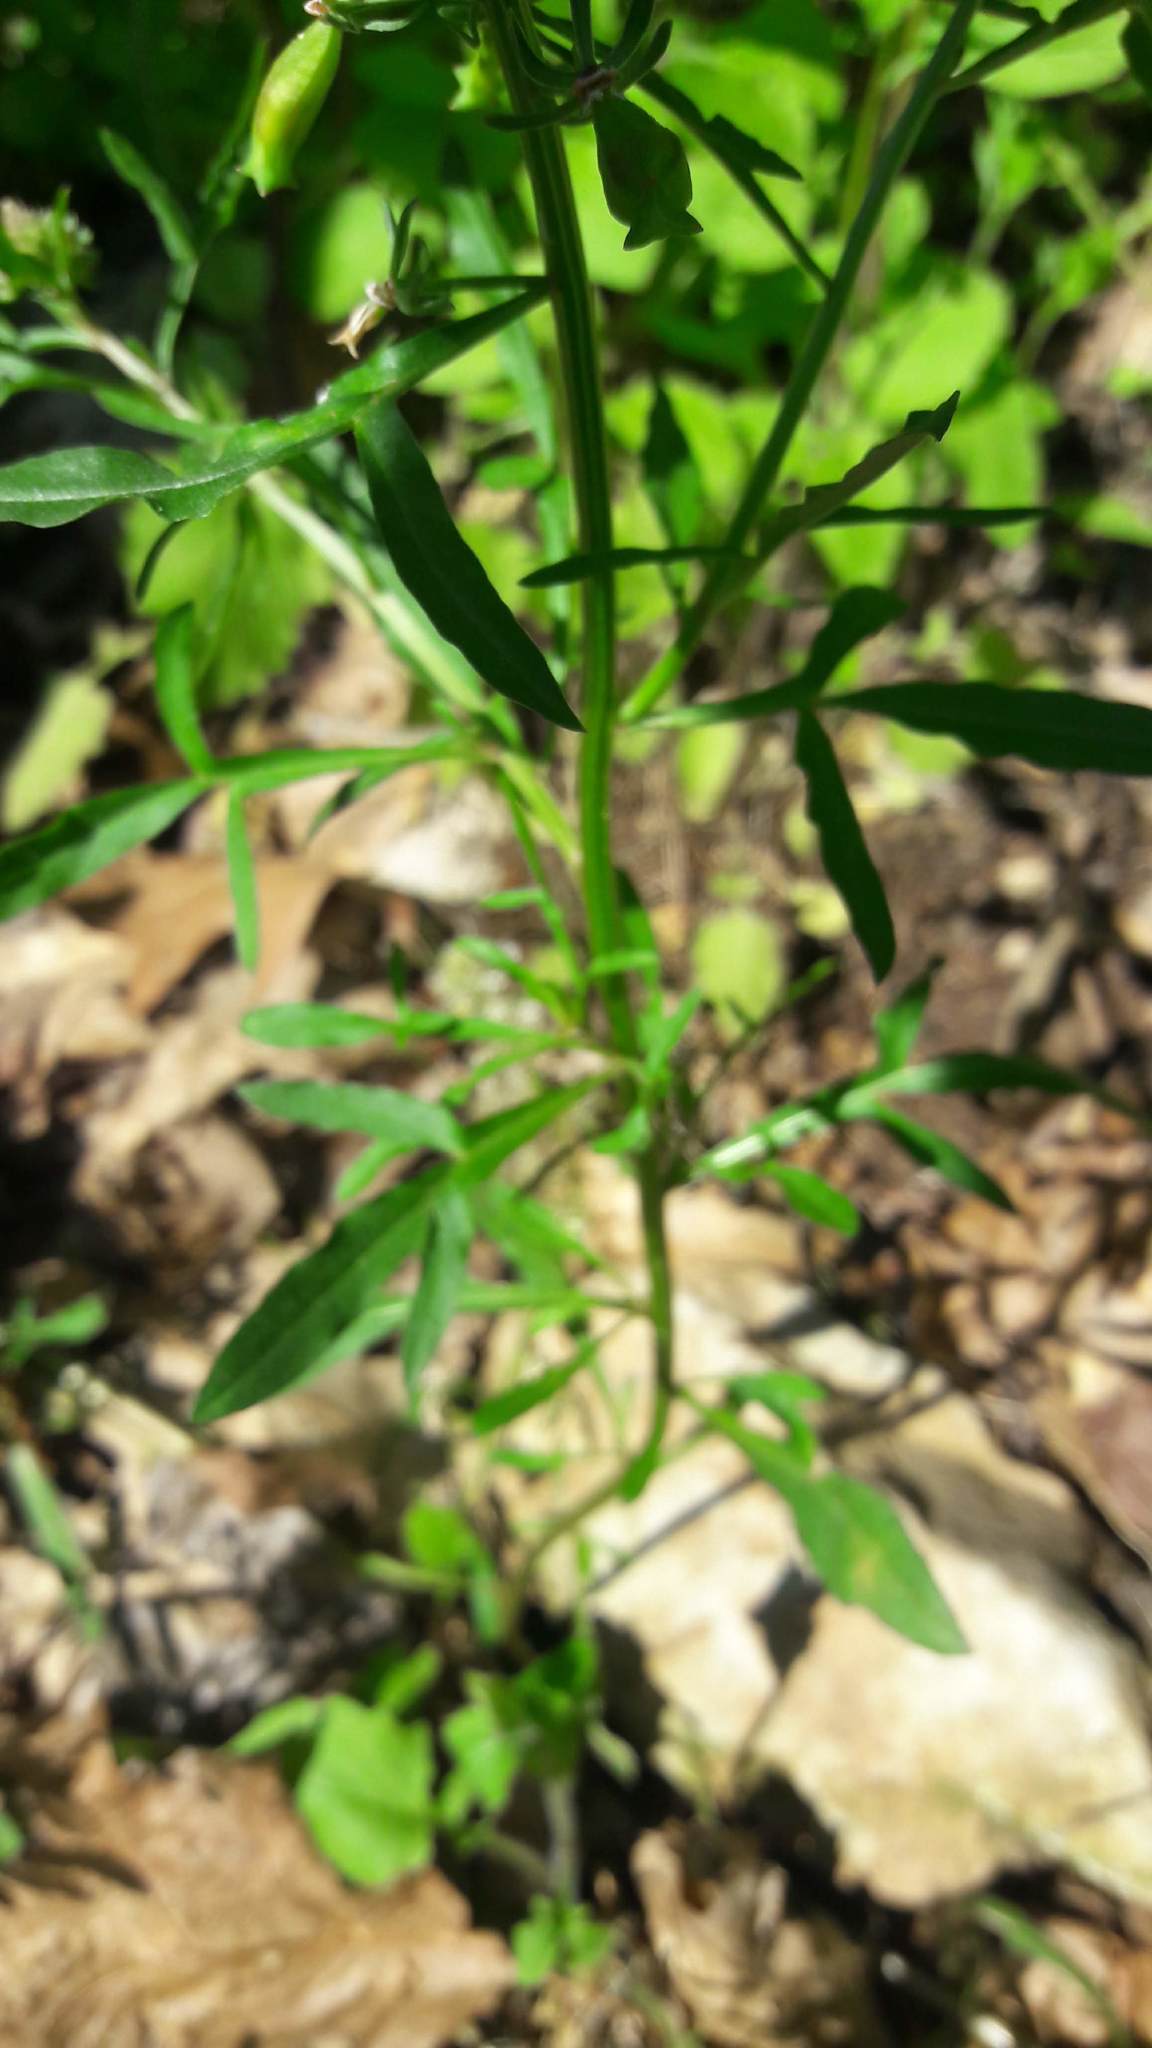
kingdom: Plantae
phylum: Tracheophyta
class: Magnoliopsida
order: Brassicales
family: Resedaceae
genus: Reseda
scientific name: Reseda phyteuma
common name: Corn mignonette
